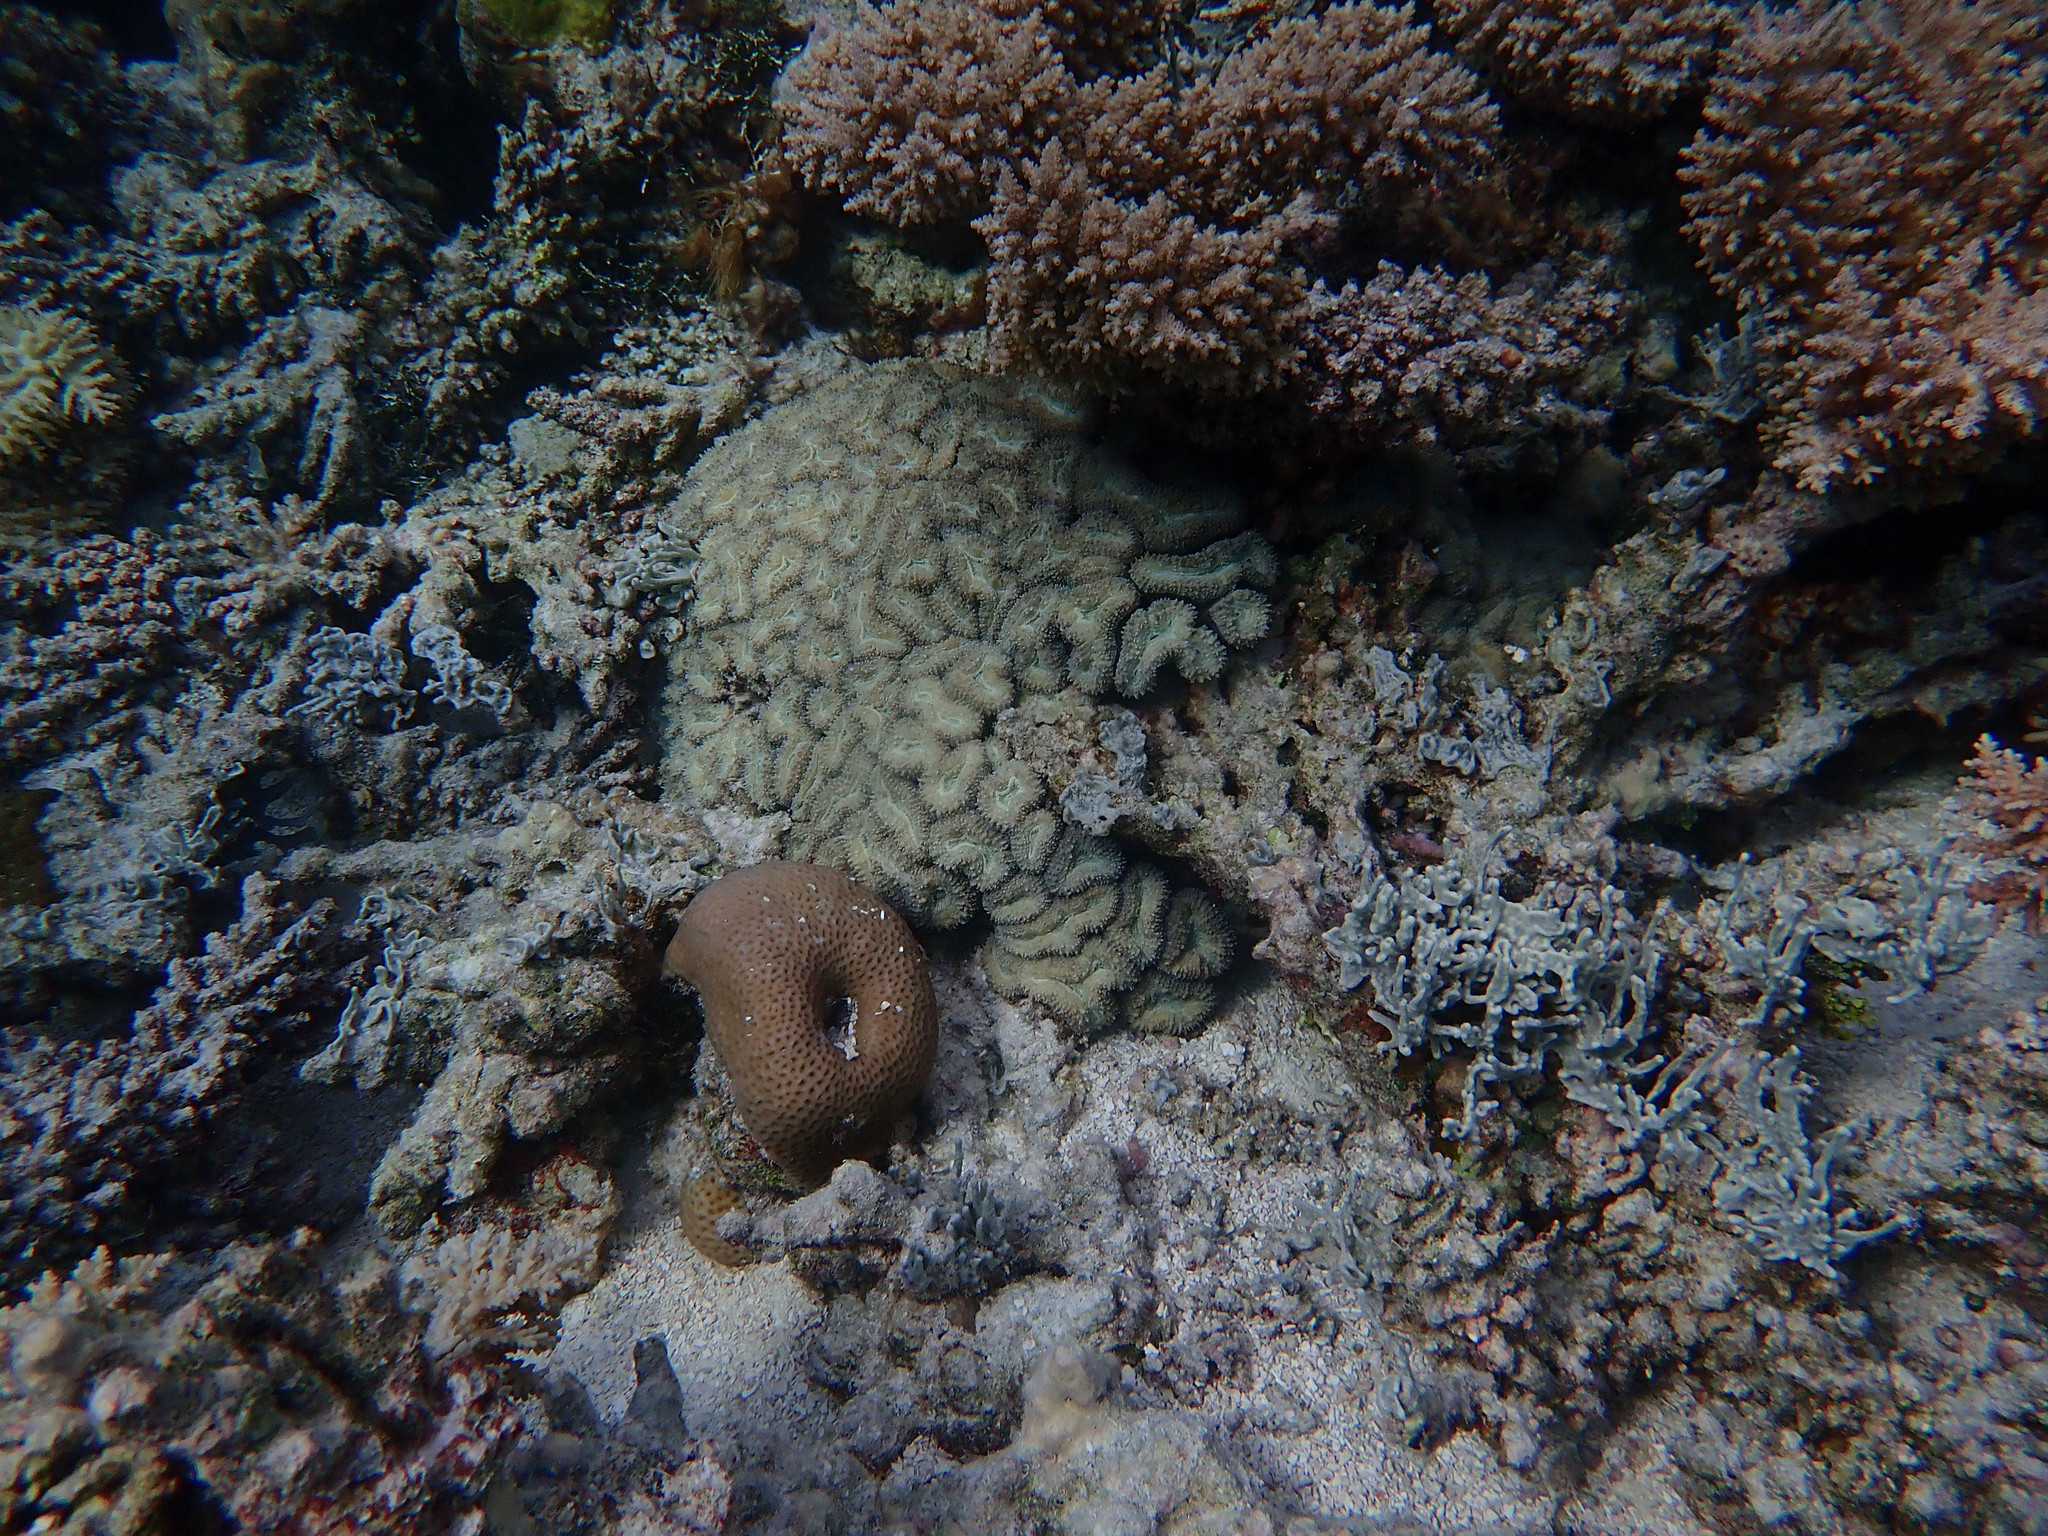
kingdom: Animalia
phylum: Cnidaria
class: Anthozoa
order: Scleractinia
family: Lobophylliidae
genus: Lobophyllia
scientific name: Lobophyllia corymbosa
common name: Lobed cactus coral
